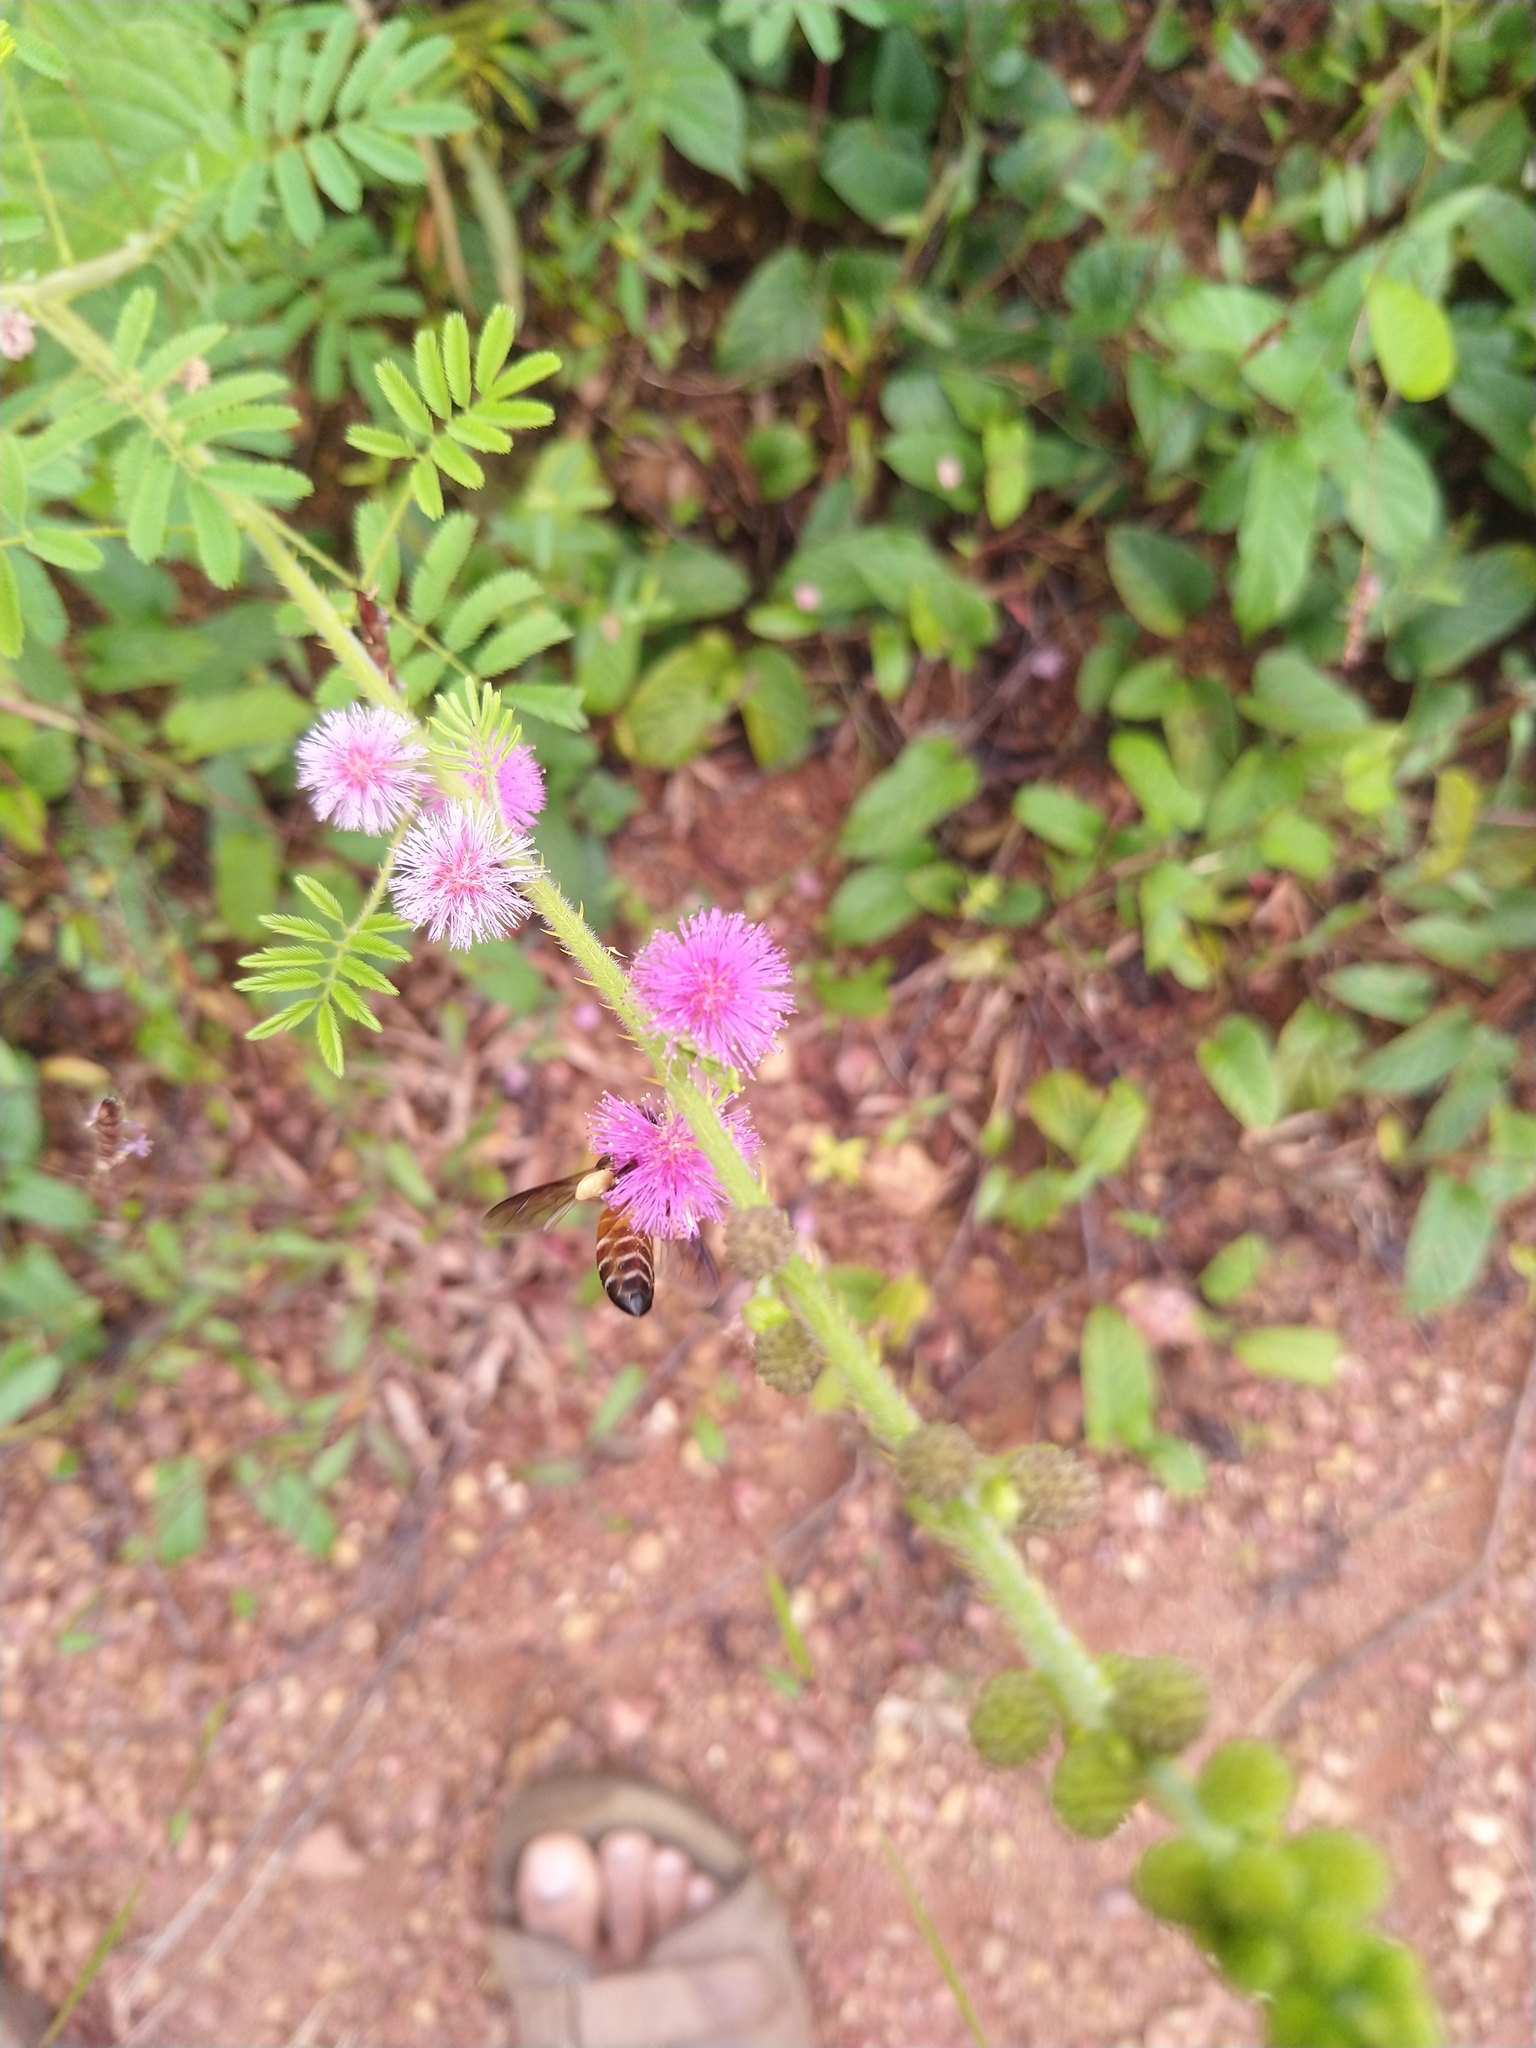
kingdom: Animalia
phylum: Arthropoda
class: Insecta
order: Hymenoptera
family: Apidae
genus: Apis
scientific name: Apis dorsata
